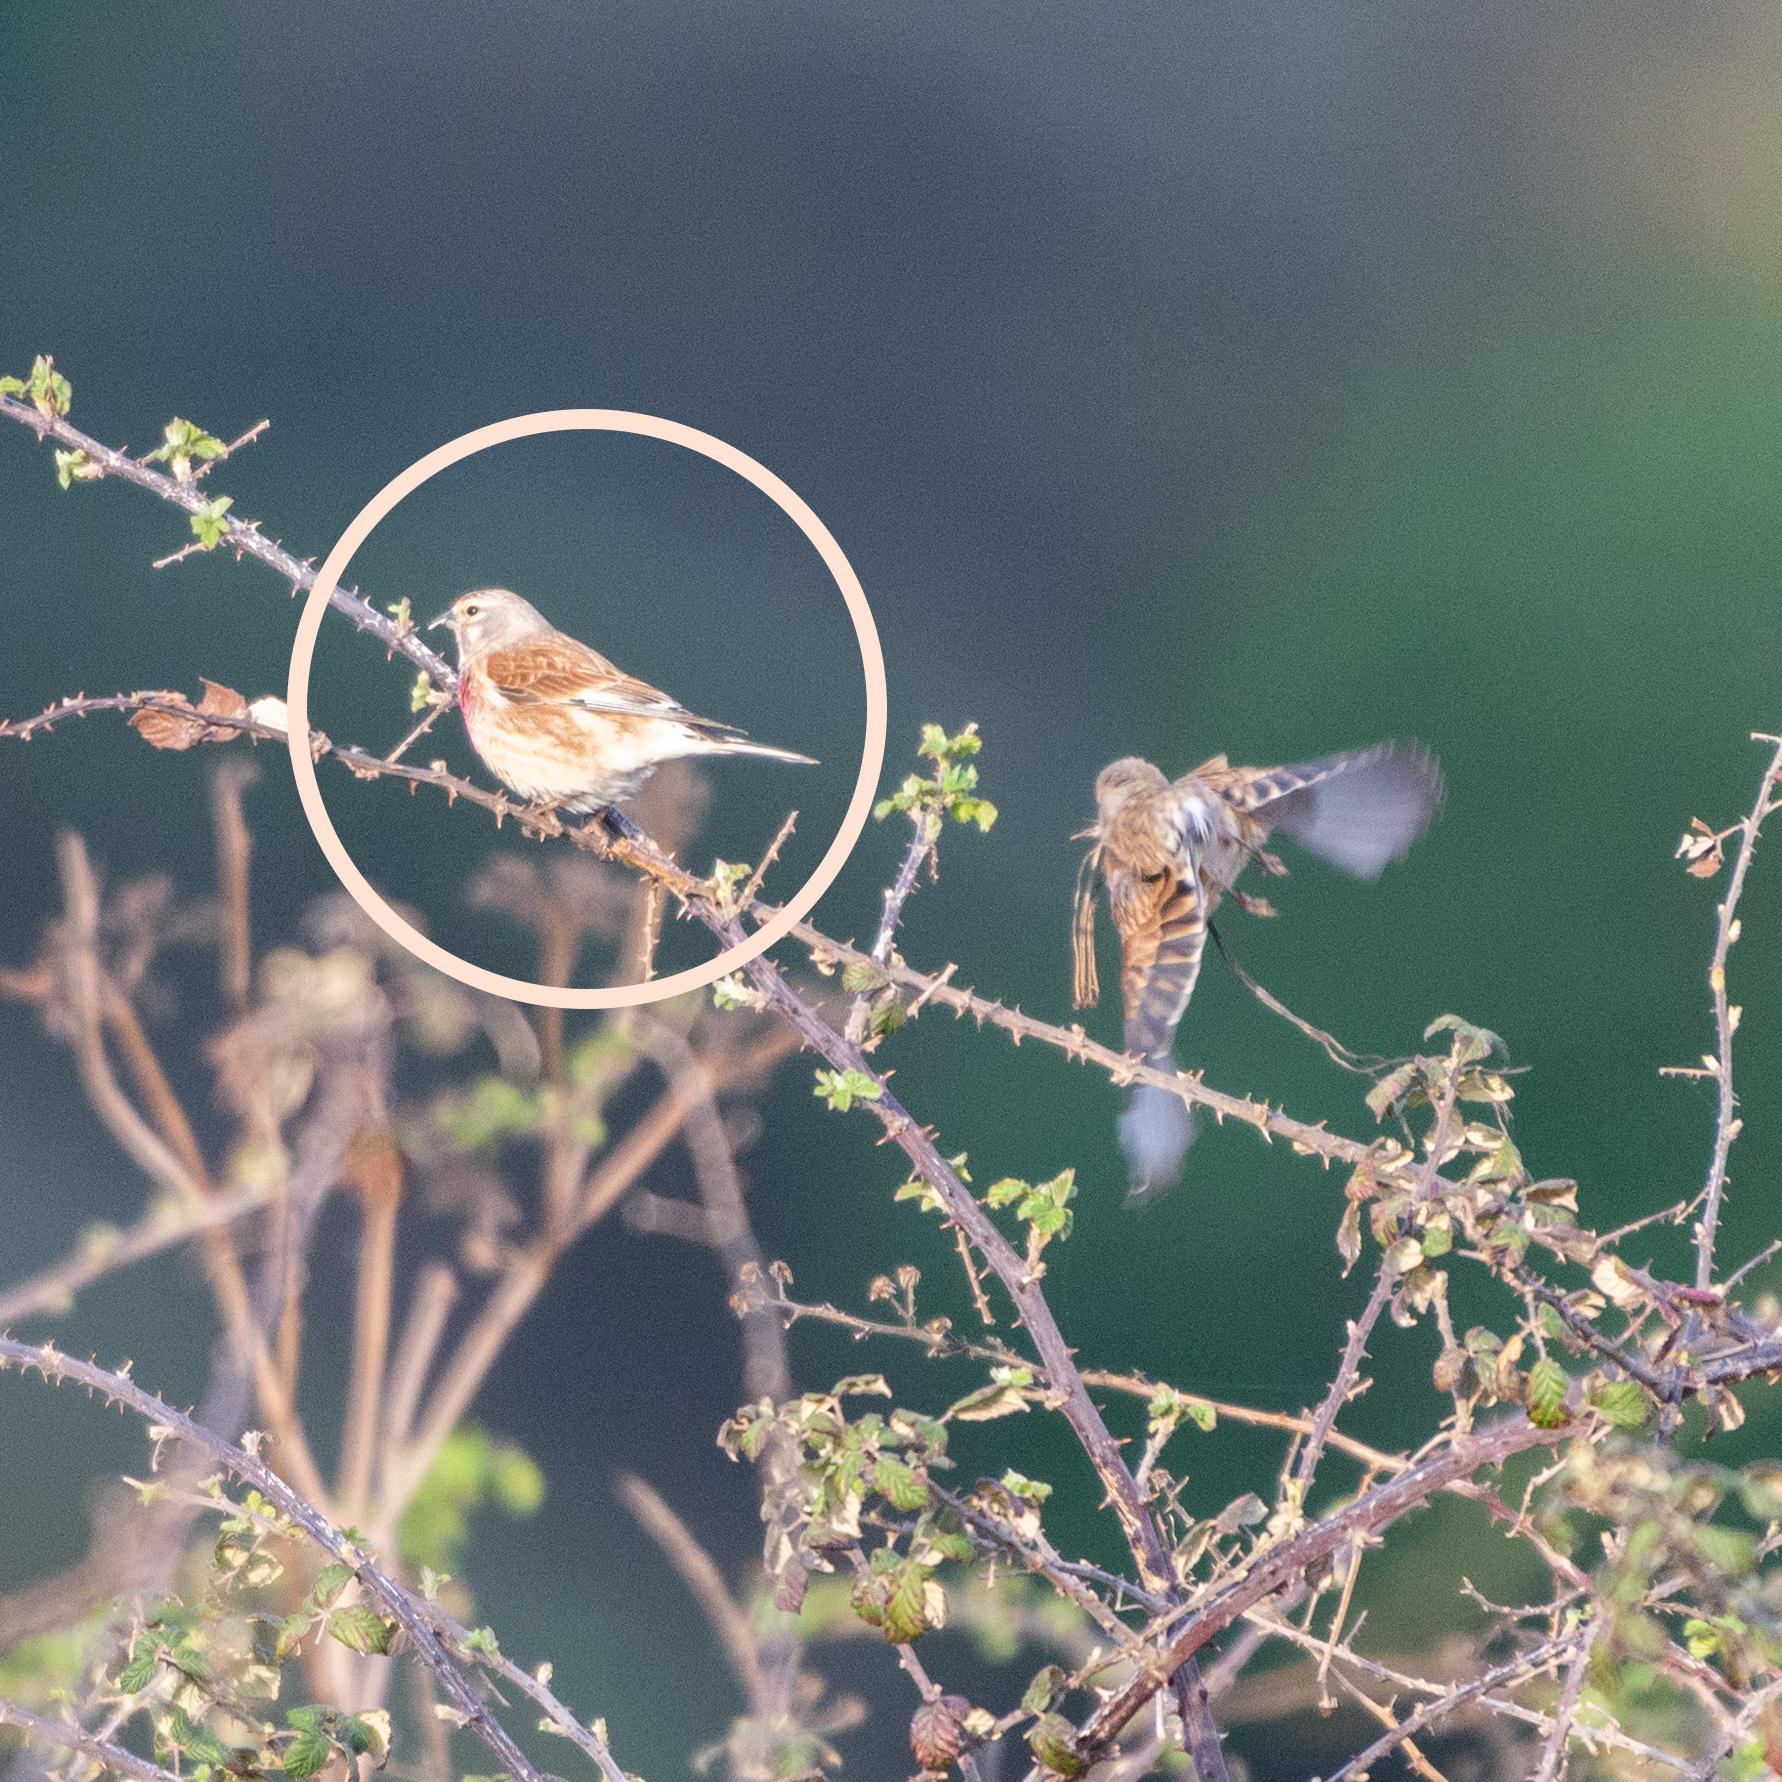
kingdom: Animalia
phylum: Chordata
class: Aves
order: Passeriformes
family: Fringillidae
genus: Linaria
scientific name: Linaria cannabina
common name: Common linnet
